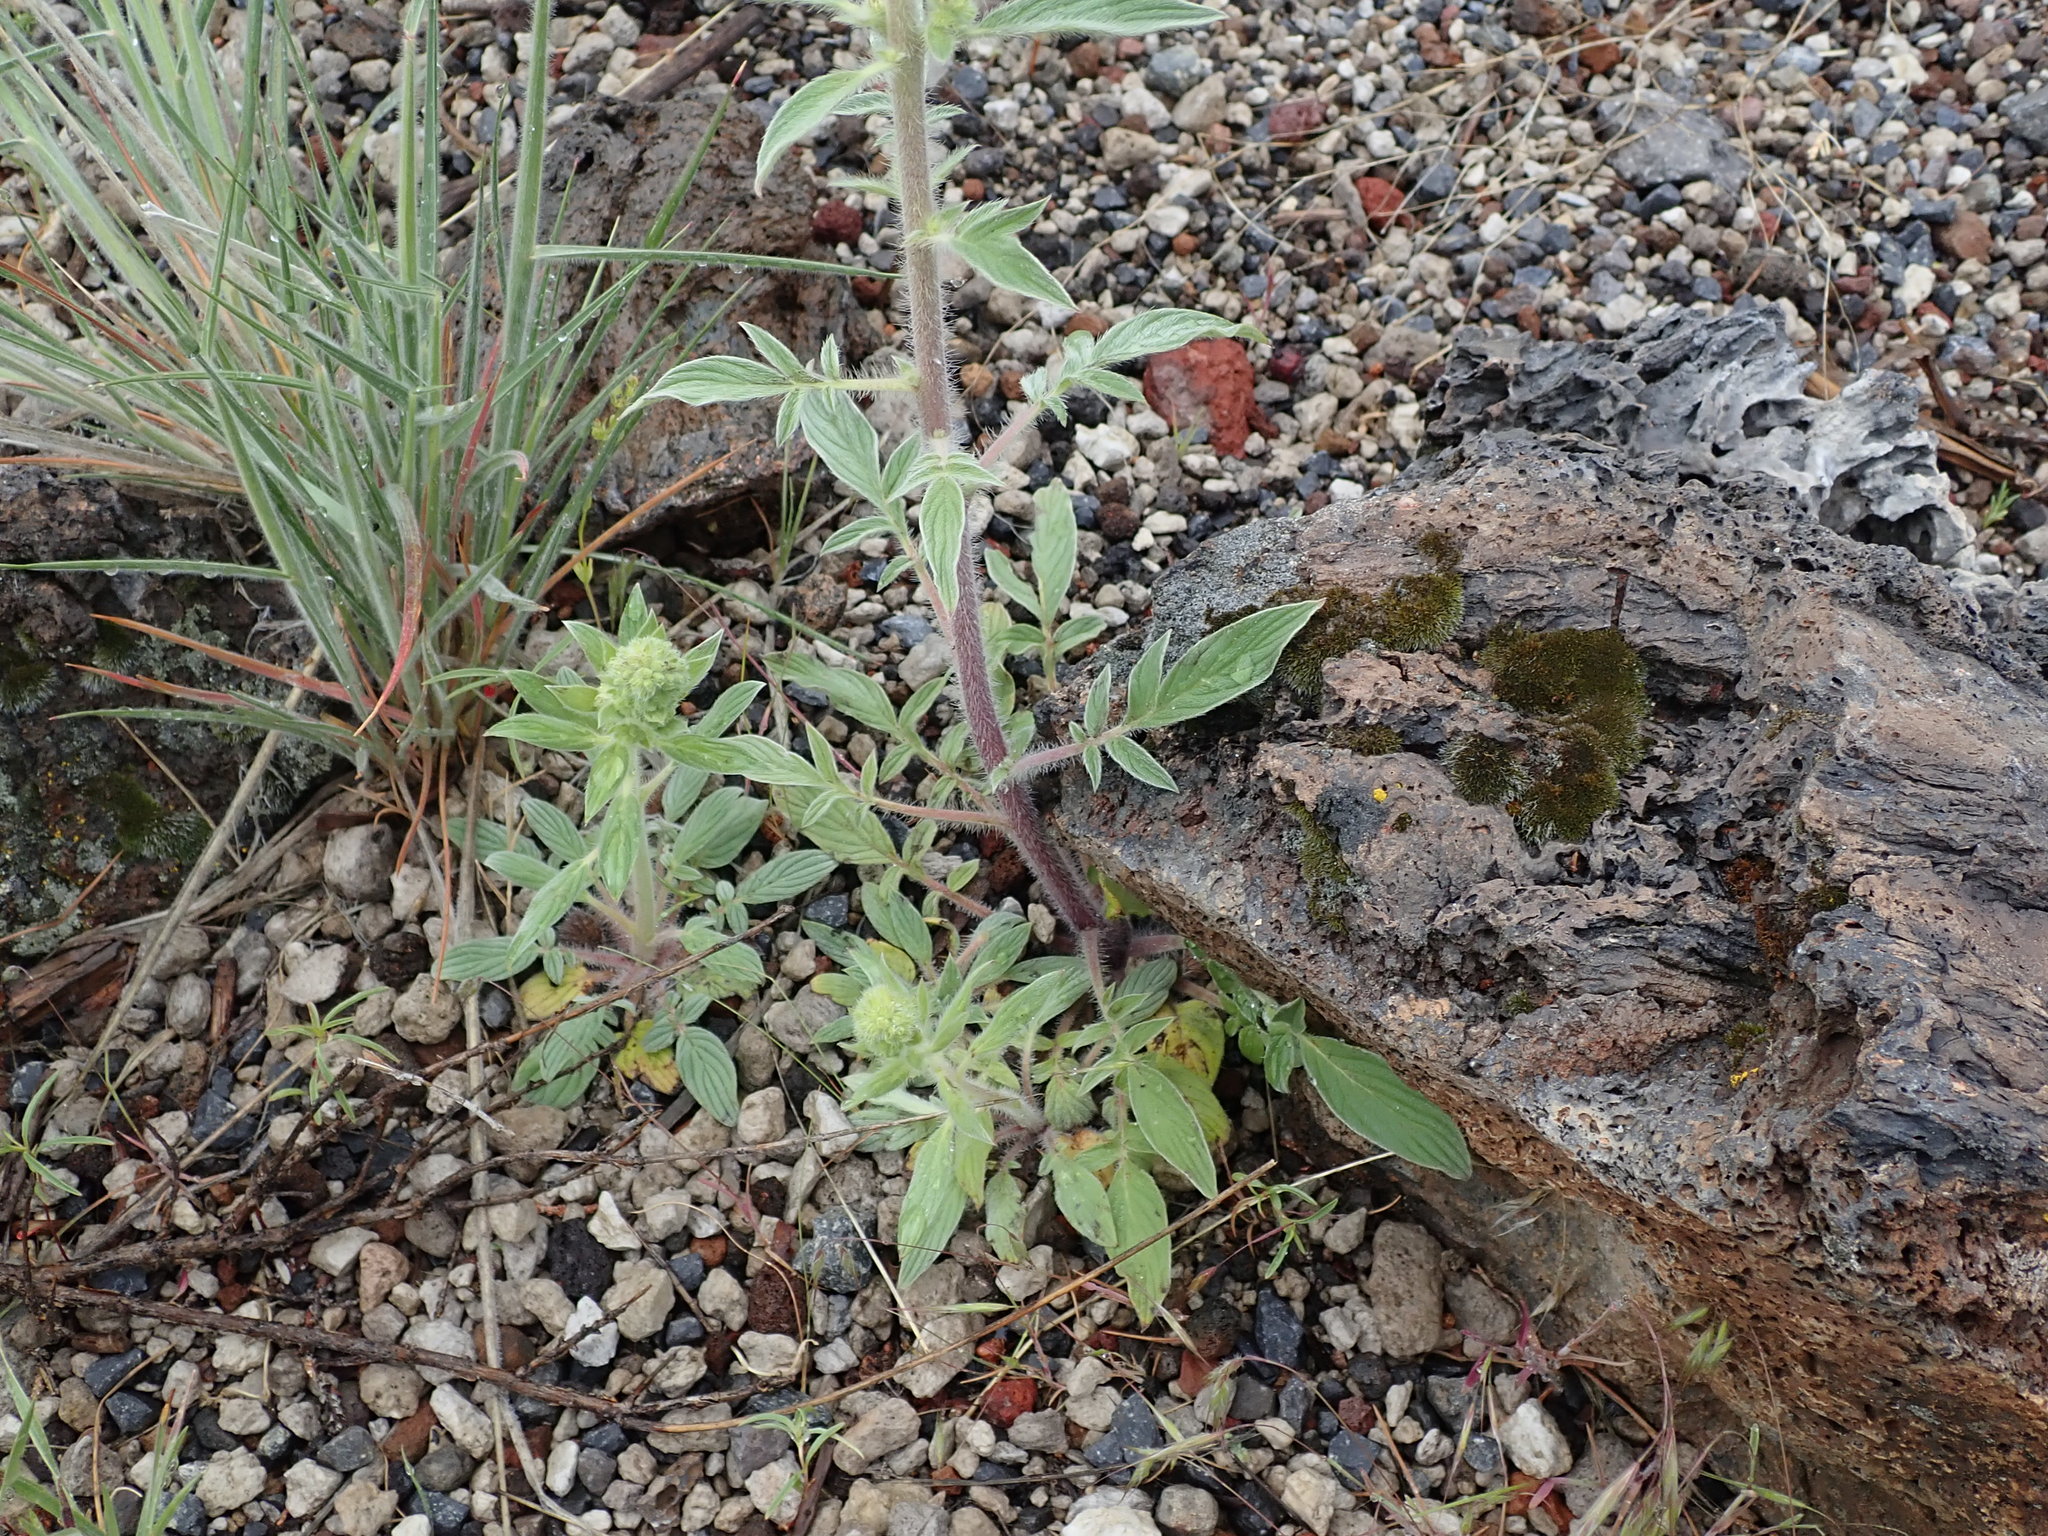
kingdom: Plantae
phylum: Tracheophyta
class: Magnoliopsida
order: Boraginales
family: Hydrophyllaceae
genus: Phacelia
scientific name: Phacelia heterophylla
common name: Variable-leaved phacelia
